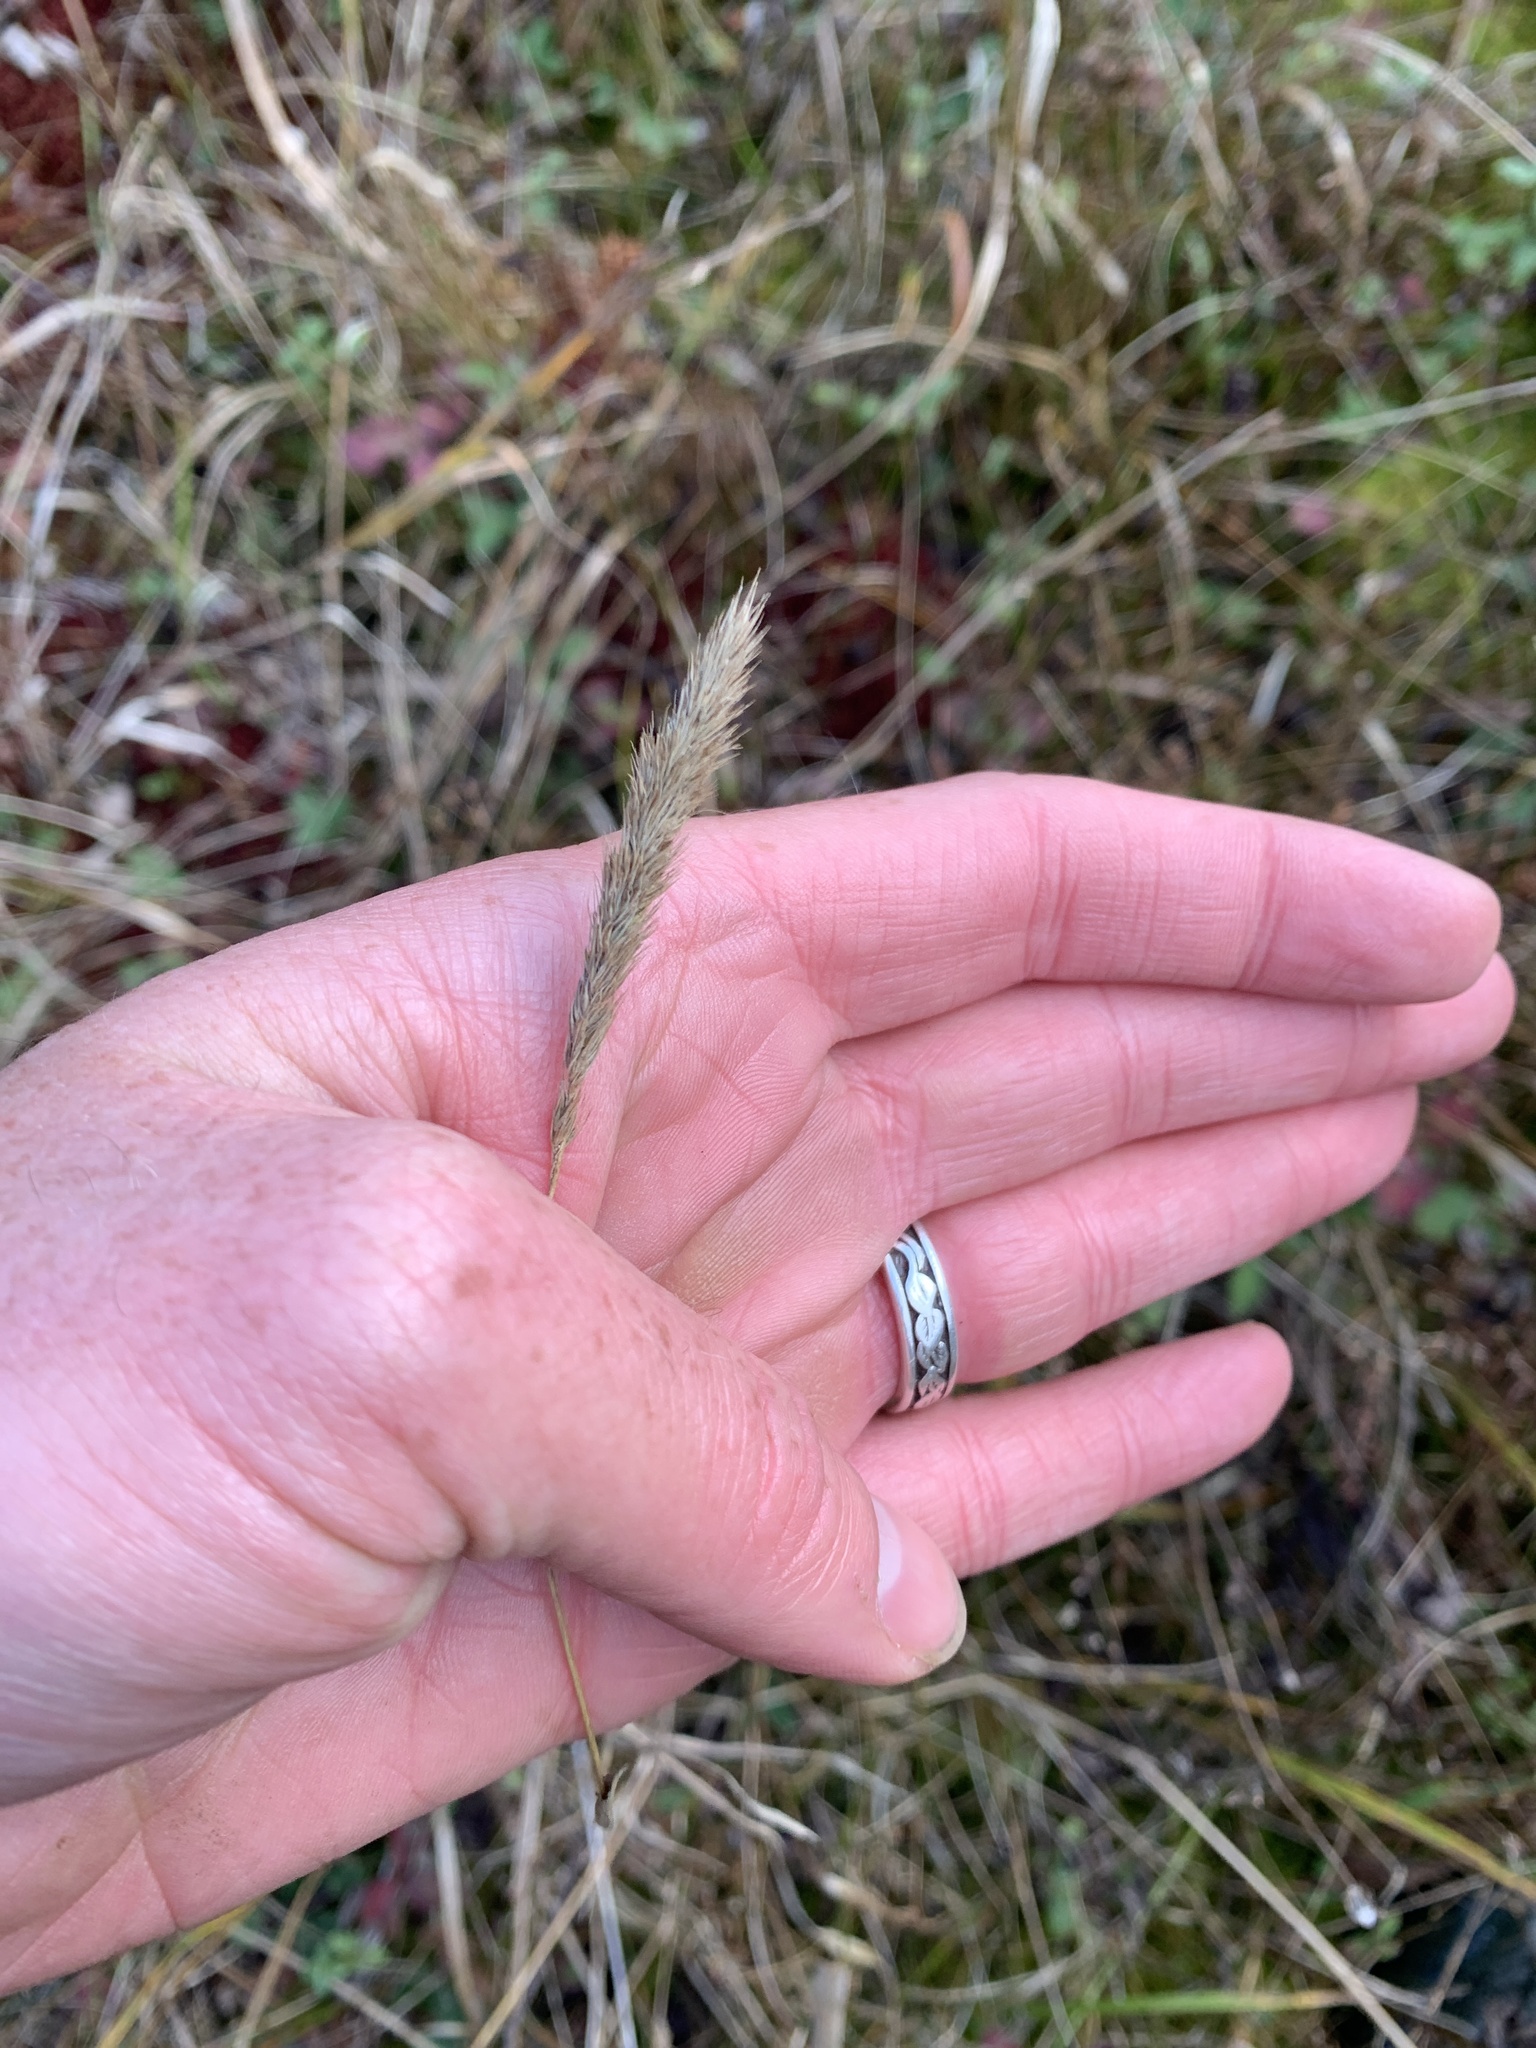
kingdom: Plantae
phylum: Tracheophyta
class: Liliopsida
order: Poales
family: Poaceae
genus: Muhlenbergia
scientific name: Muhlenbergia glomerata
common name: Bog muhly
